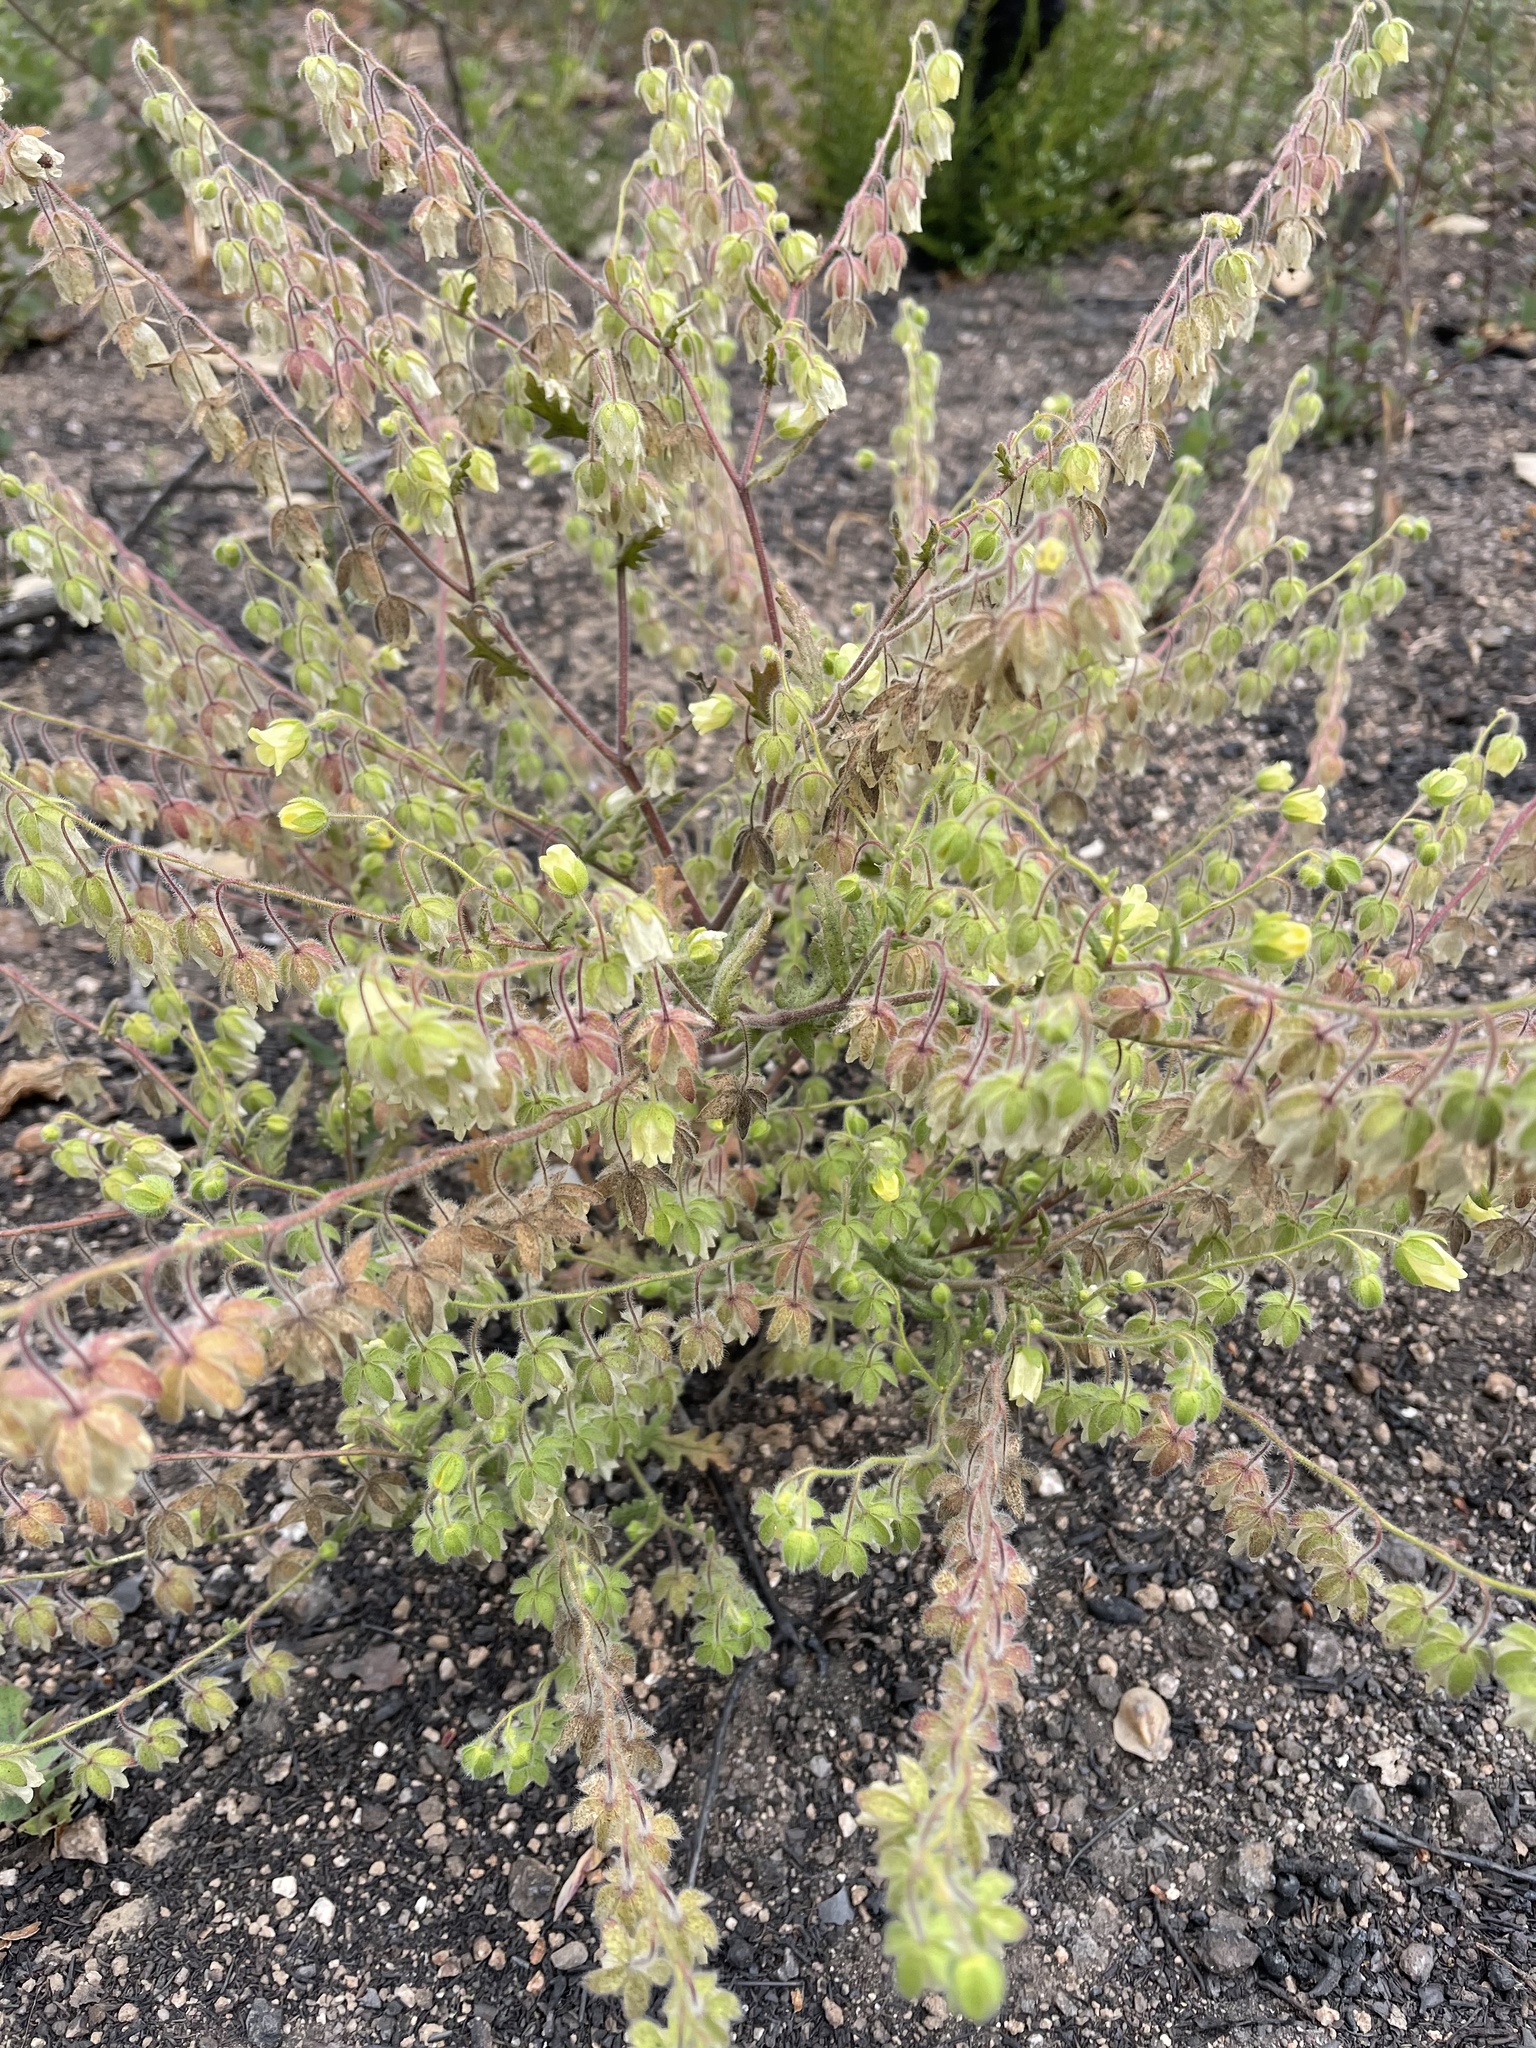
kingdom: Plantae
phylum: Tracheophyta
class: Magnoliopsida
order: Boraginales
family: Hydrophyllaceae
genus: Emmenanthe
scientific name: Emmenanthe penduliflora
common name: Whispering-bells
